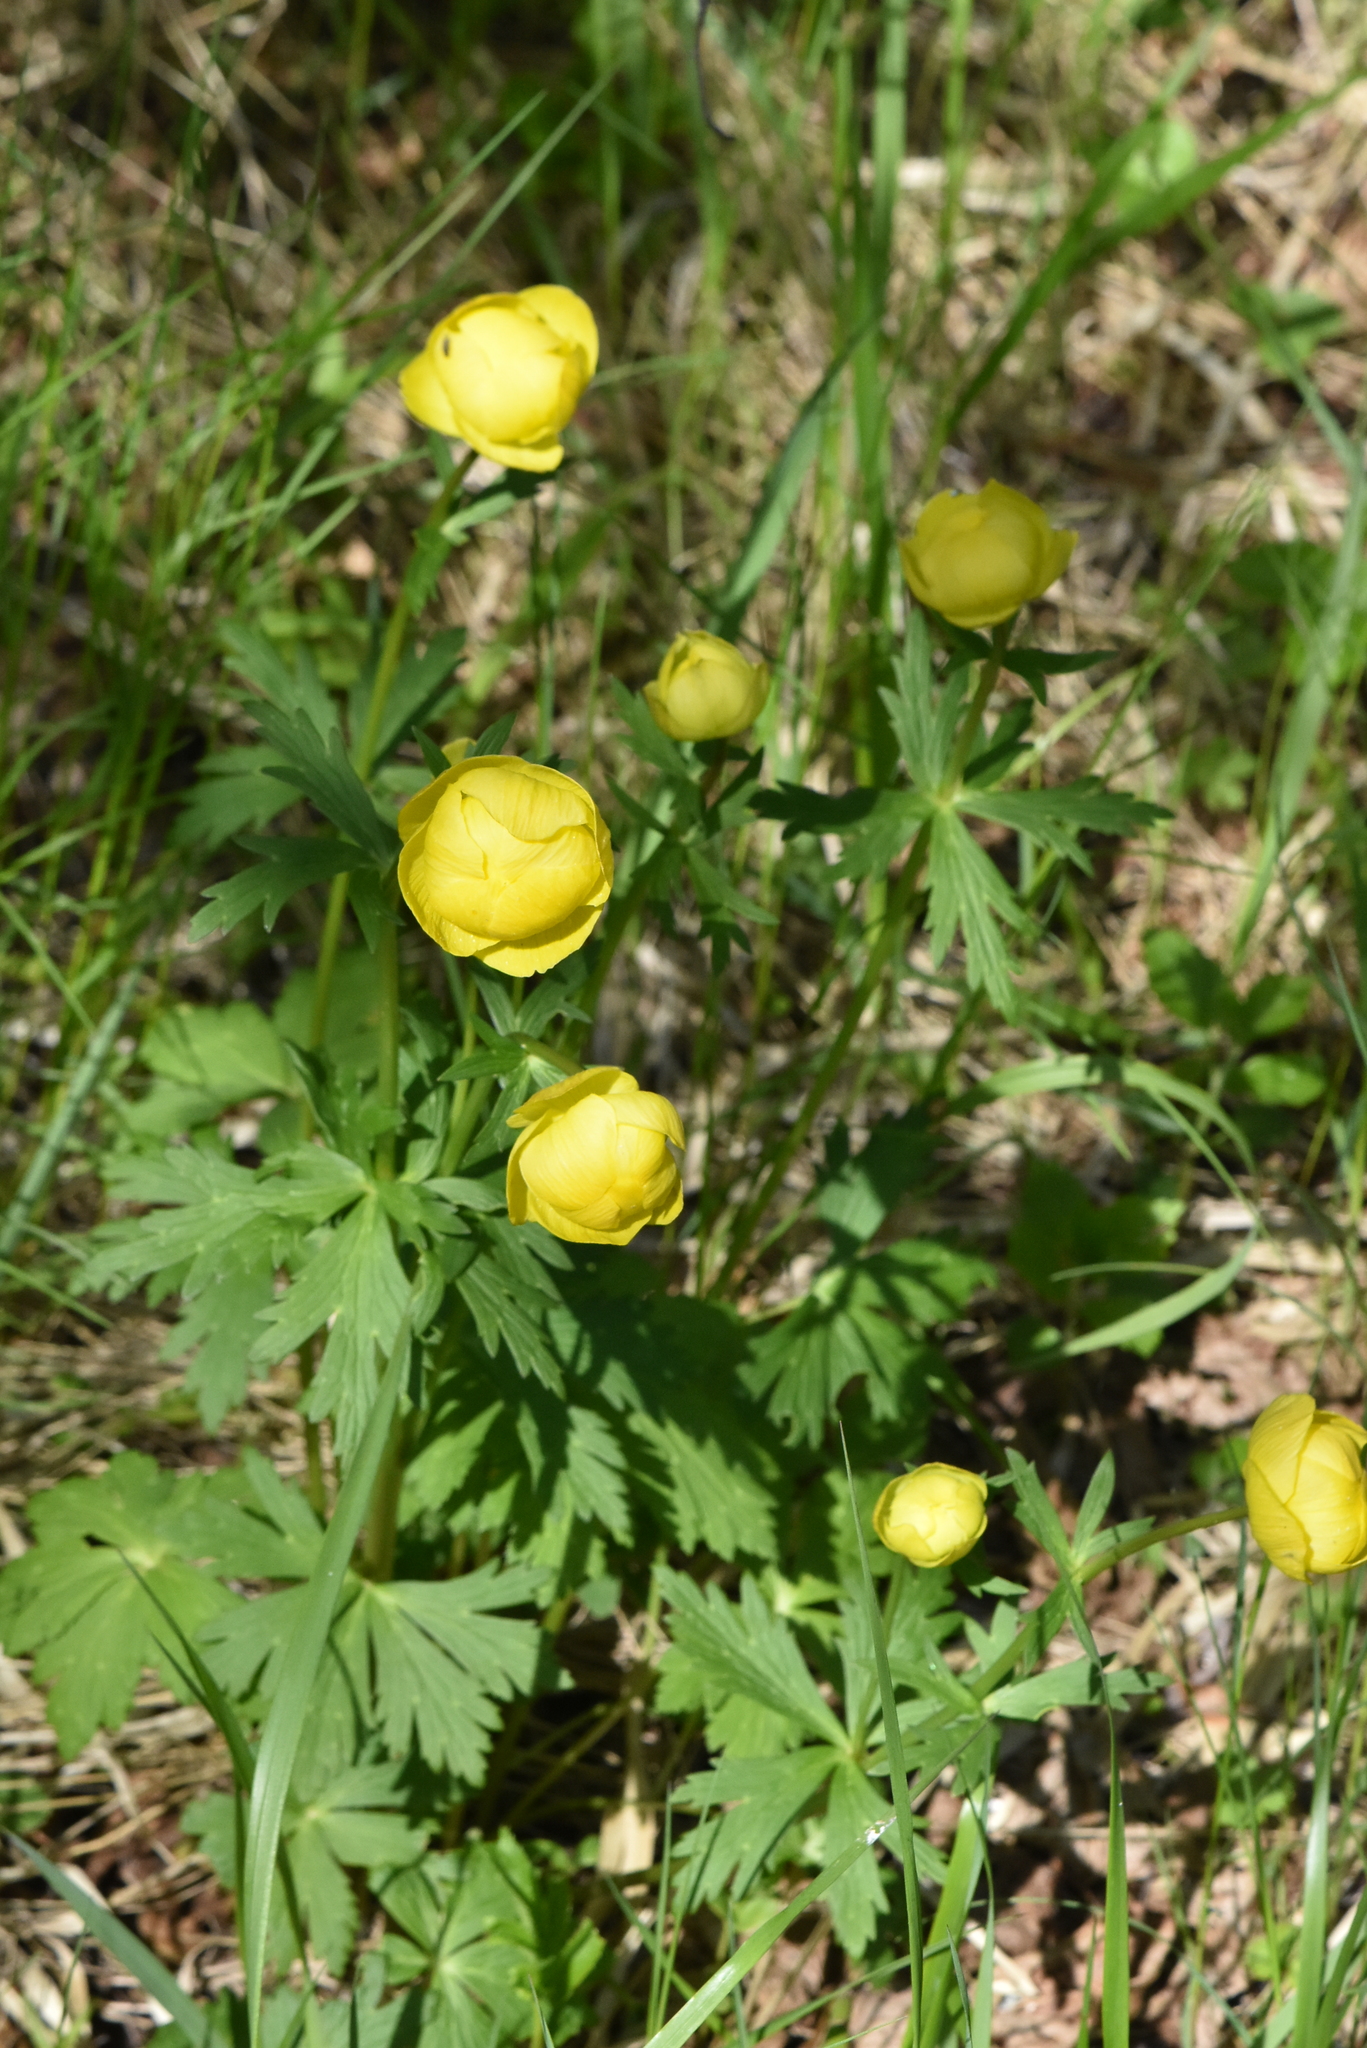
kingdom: Plantae
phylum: Tracheophyta
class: Magnoliopsida
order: Ranunculales
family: Ranunculaceae
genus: Trollius
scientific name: Trollius europaeus
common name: European globeflower
